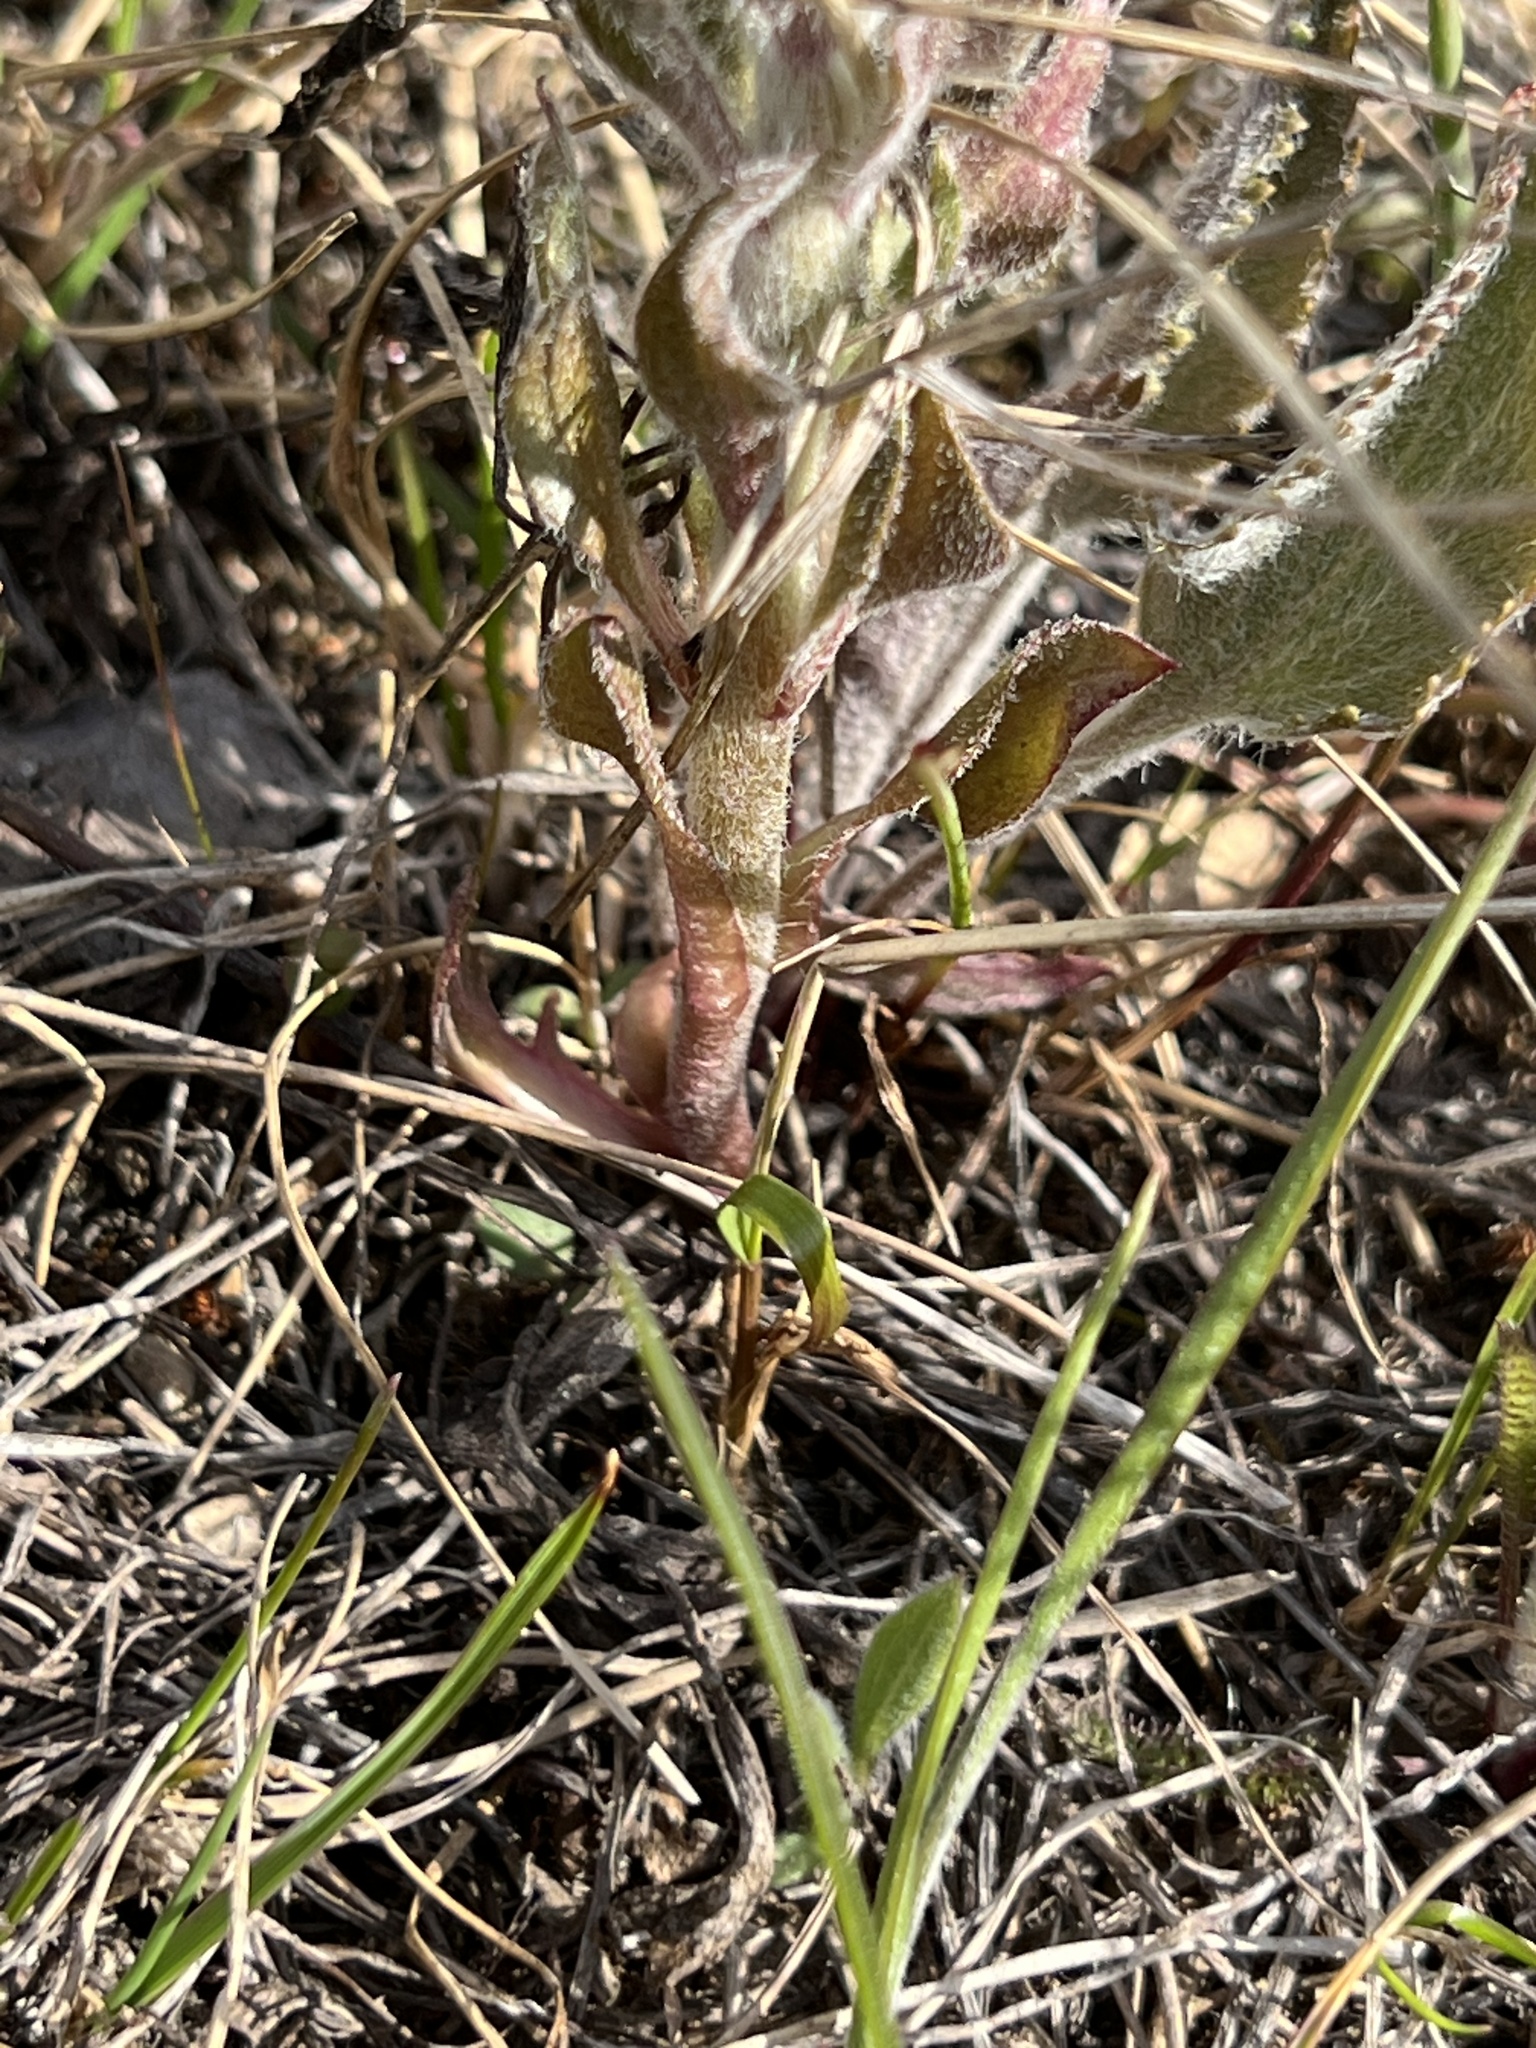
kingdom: Plantae
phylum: Tracheophyta
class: Magnoliopsida
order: Lamiales
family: Plantaginaceae
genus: Synthyris
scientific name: Synthyris wyomingensis
